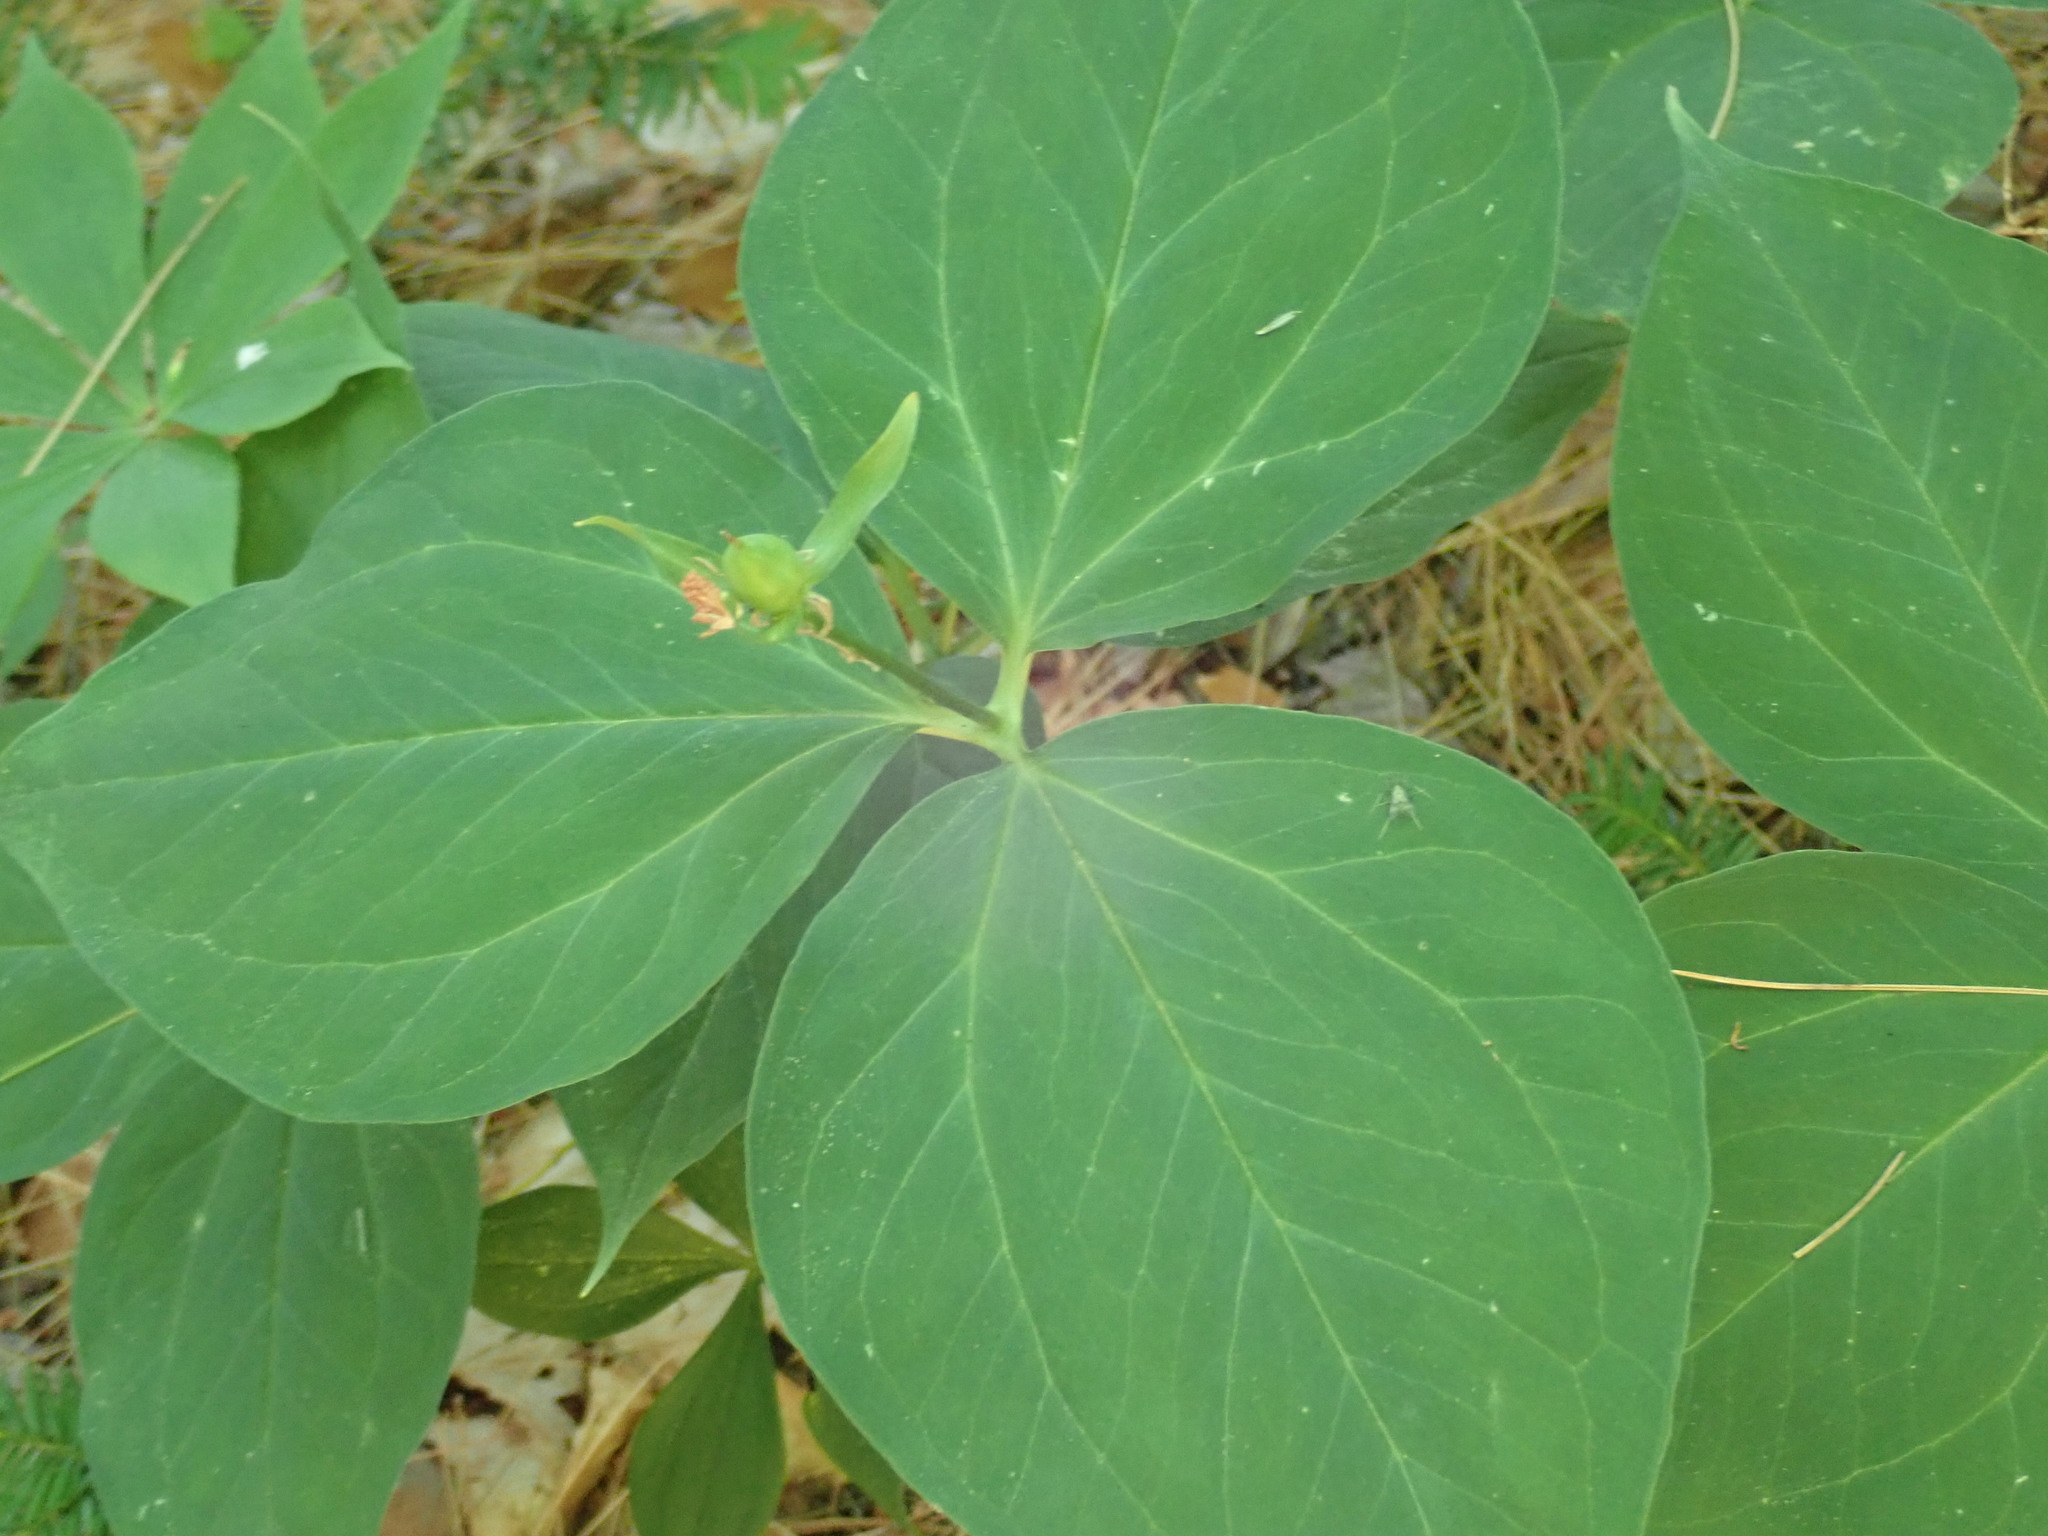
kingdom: Plantae
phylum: Tracheophyta
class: Liliopsida
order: Liliales
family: Melanthiaceae
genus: Trillium
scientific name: Trillium undulatum
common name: Paint trillium
